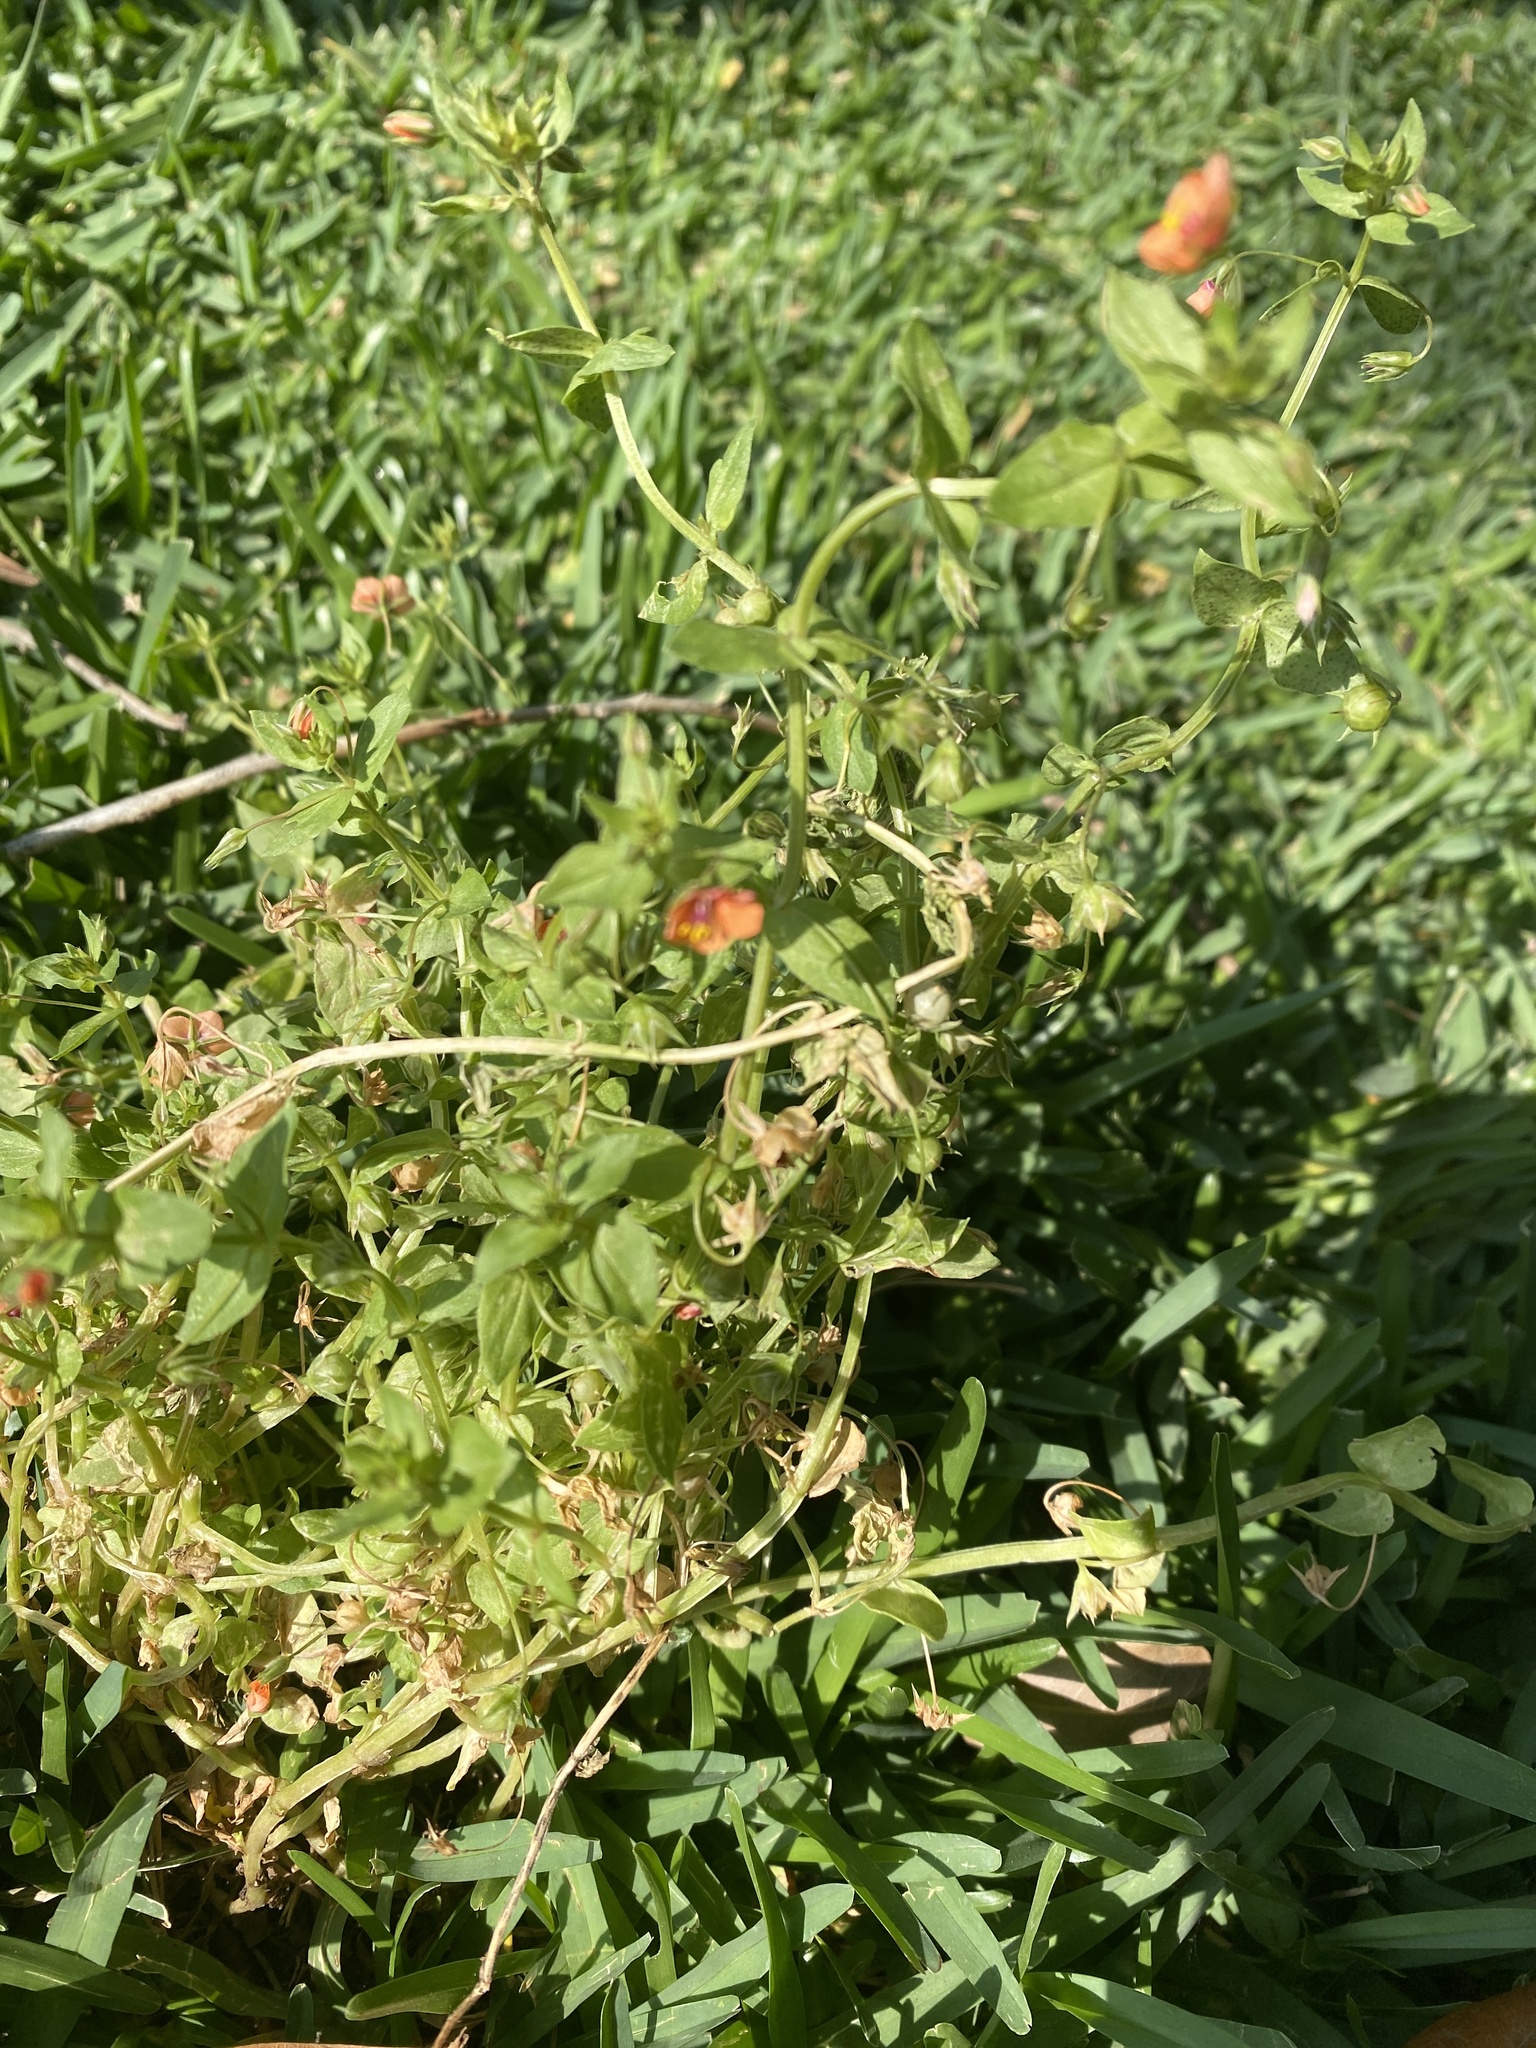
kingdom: Plantae
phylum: Tracheophyta
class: Magnoliopsida
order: Ericales
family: Primulaceae
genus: Lysimachia
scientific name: Lysimachia arvensis
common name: Scarlet pimpernel
